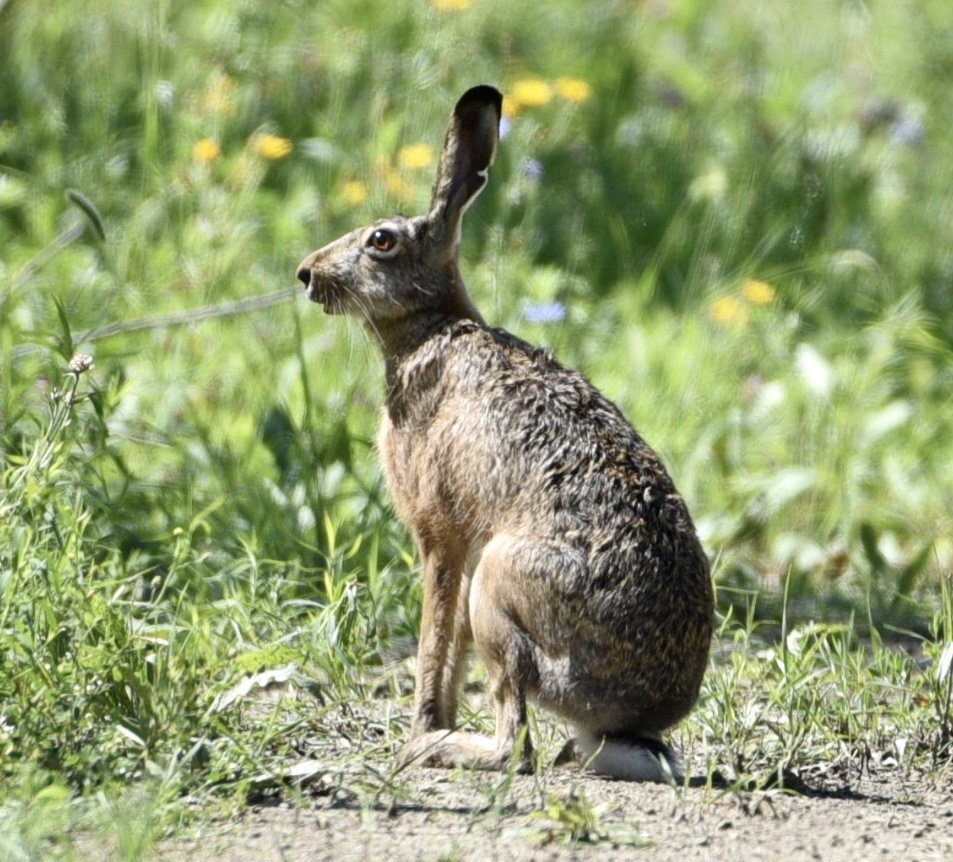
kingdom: Animalia
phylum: Chordata
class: Mammalia
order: Lagomorpha
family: Leporidae
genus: Lepus
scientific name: Lepus europaeus
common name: European hare
